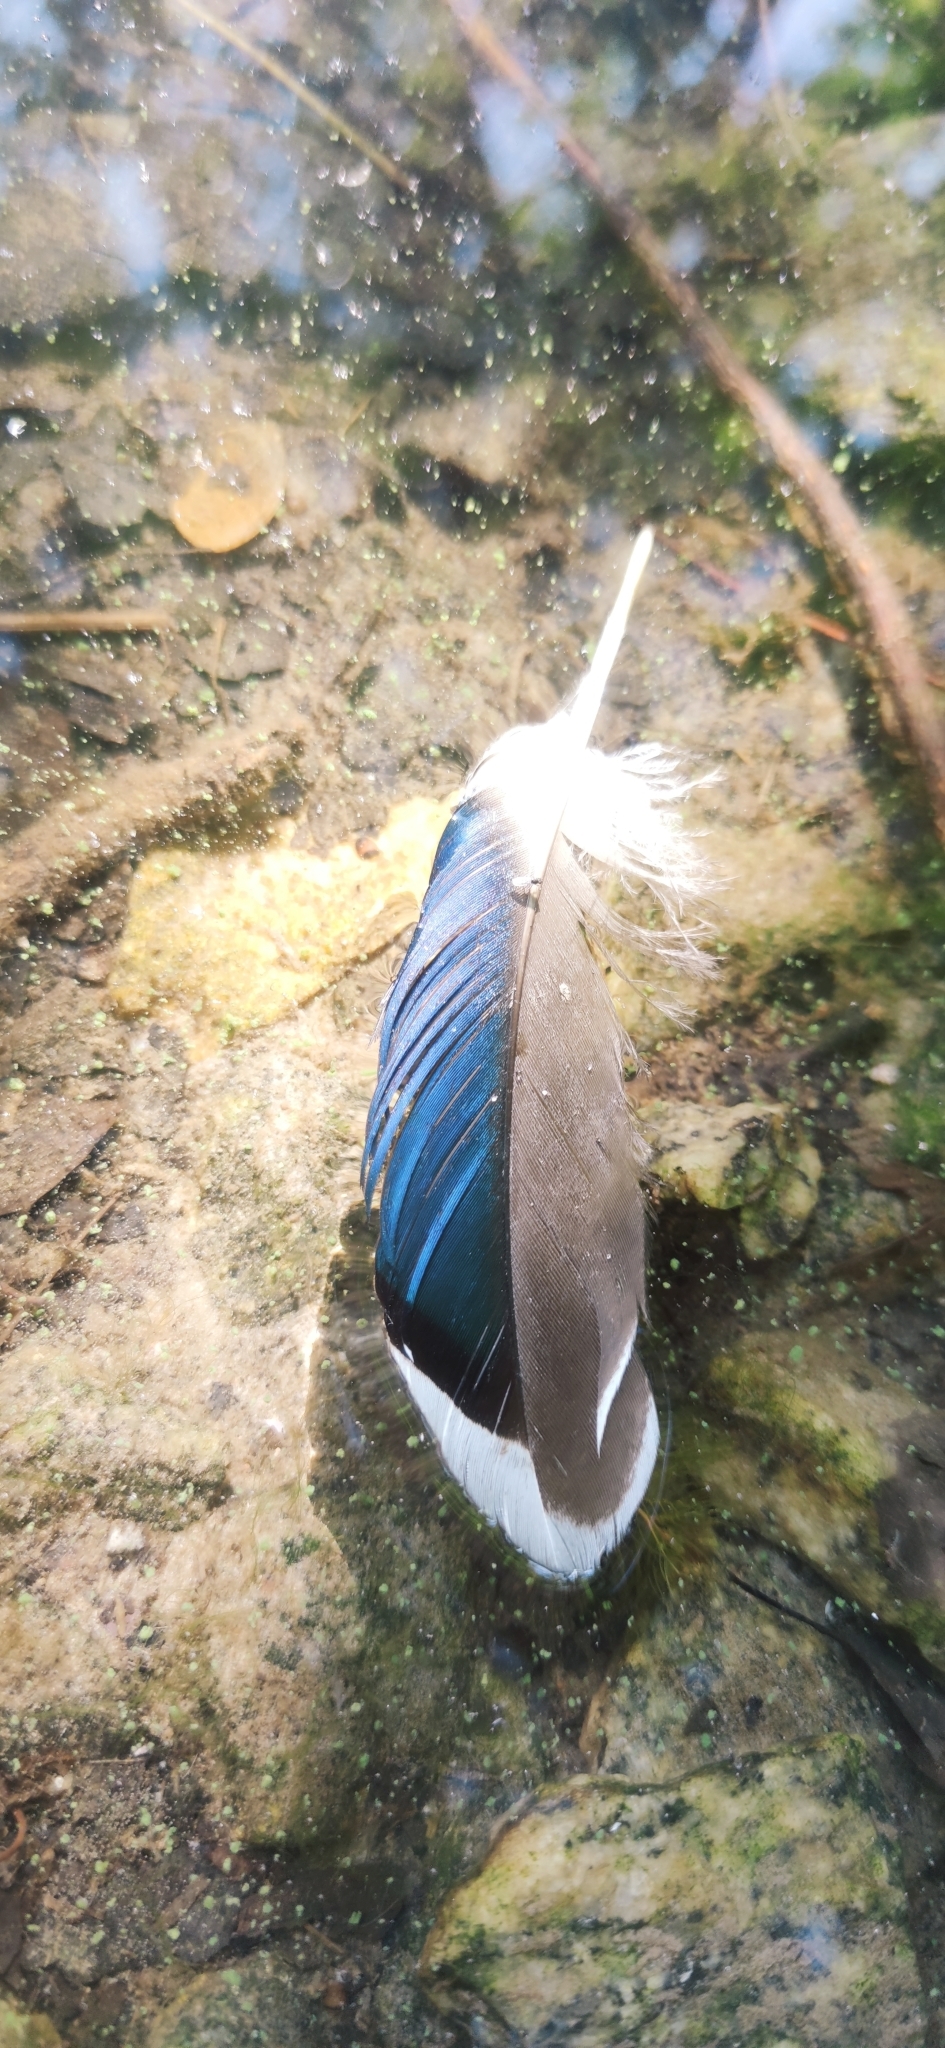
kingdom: Animalia
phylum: Chordata
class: Aves
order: Anseriformes
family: Anatidae
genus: Anas
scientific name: Anas platyrhynchos
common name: Mallard
